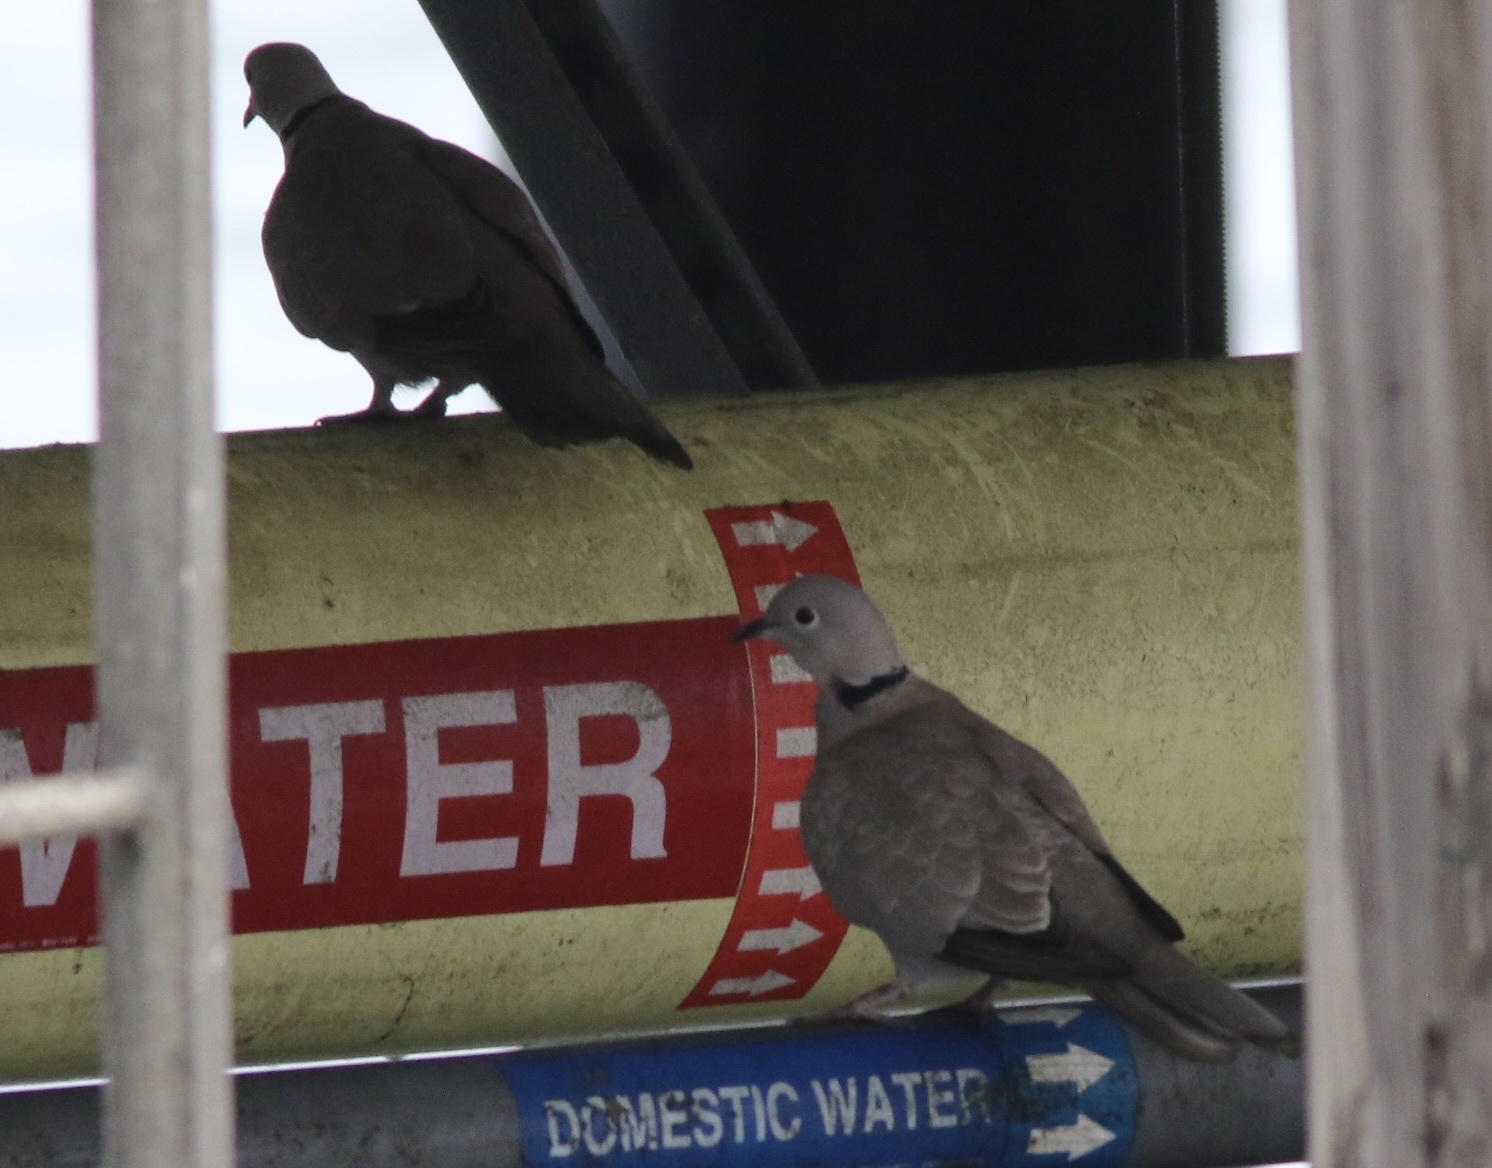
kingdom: Animalia
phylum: Chordata
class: Aves
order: Columbiformes
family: Columbidae
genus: Streptopelia
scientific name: Streptopelia decaocto
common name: Eurasian collared dove
